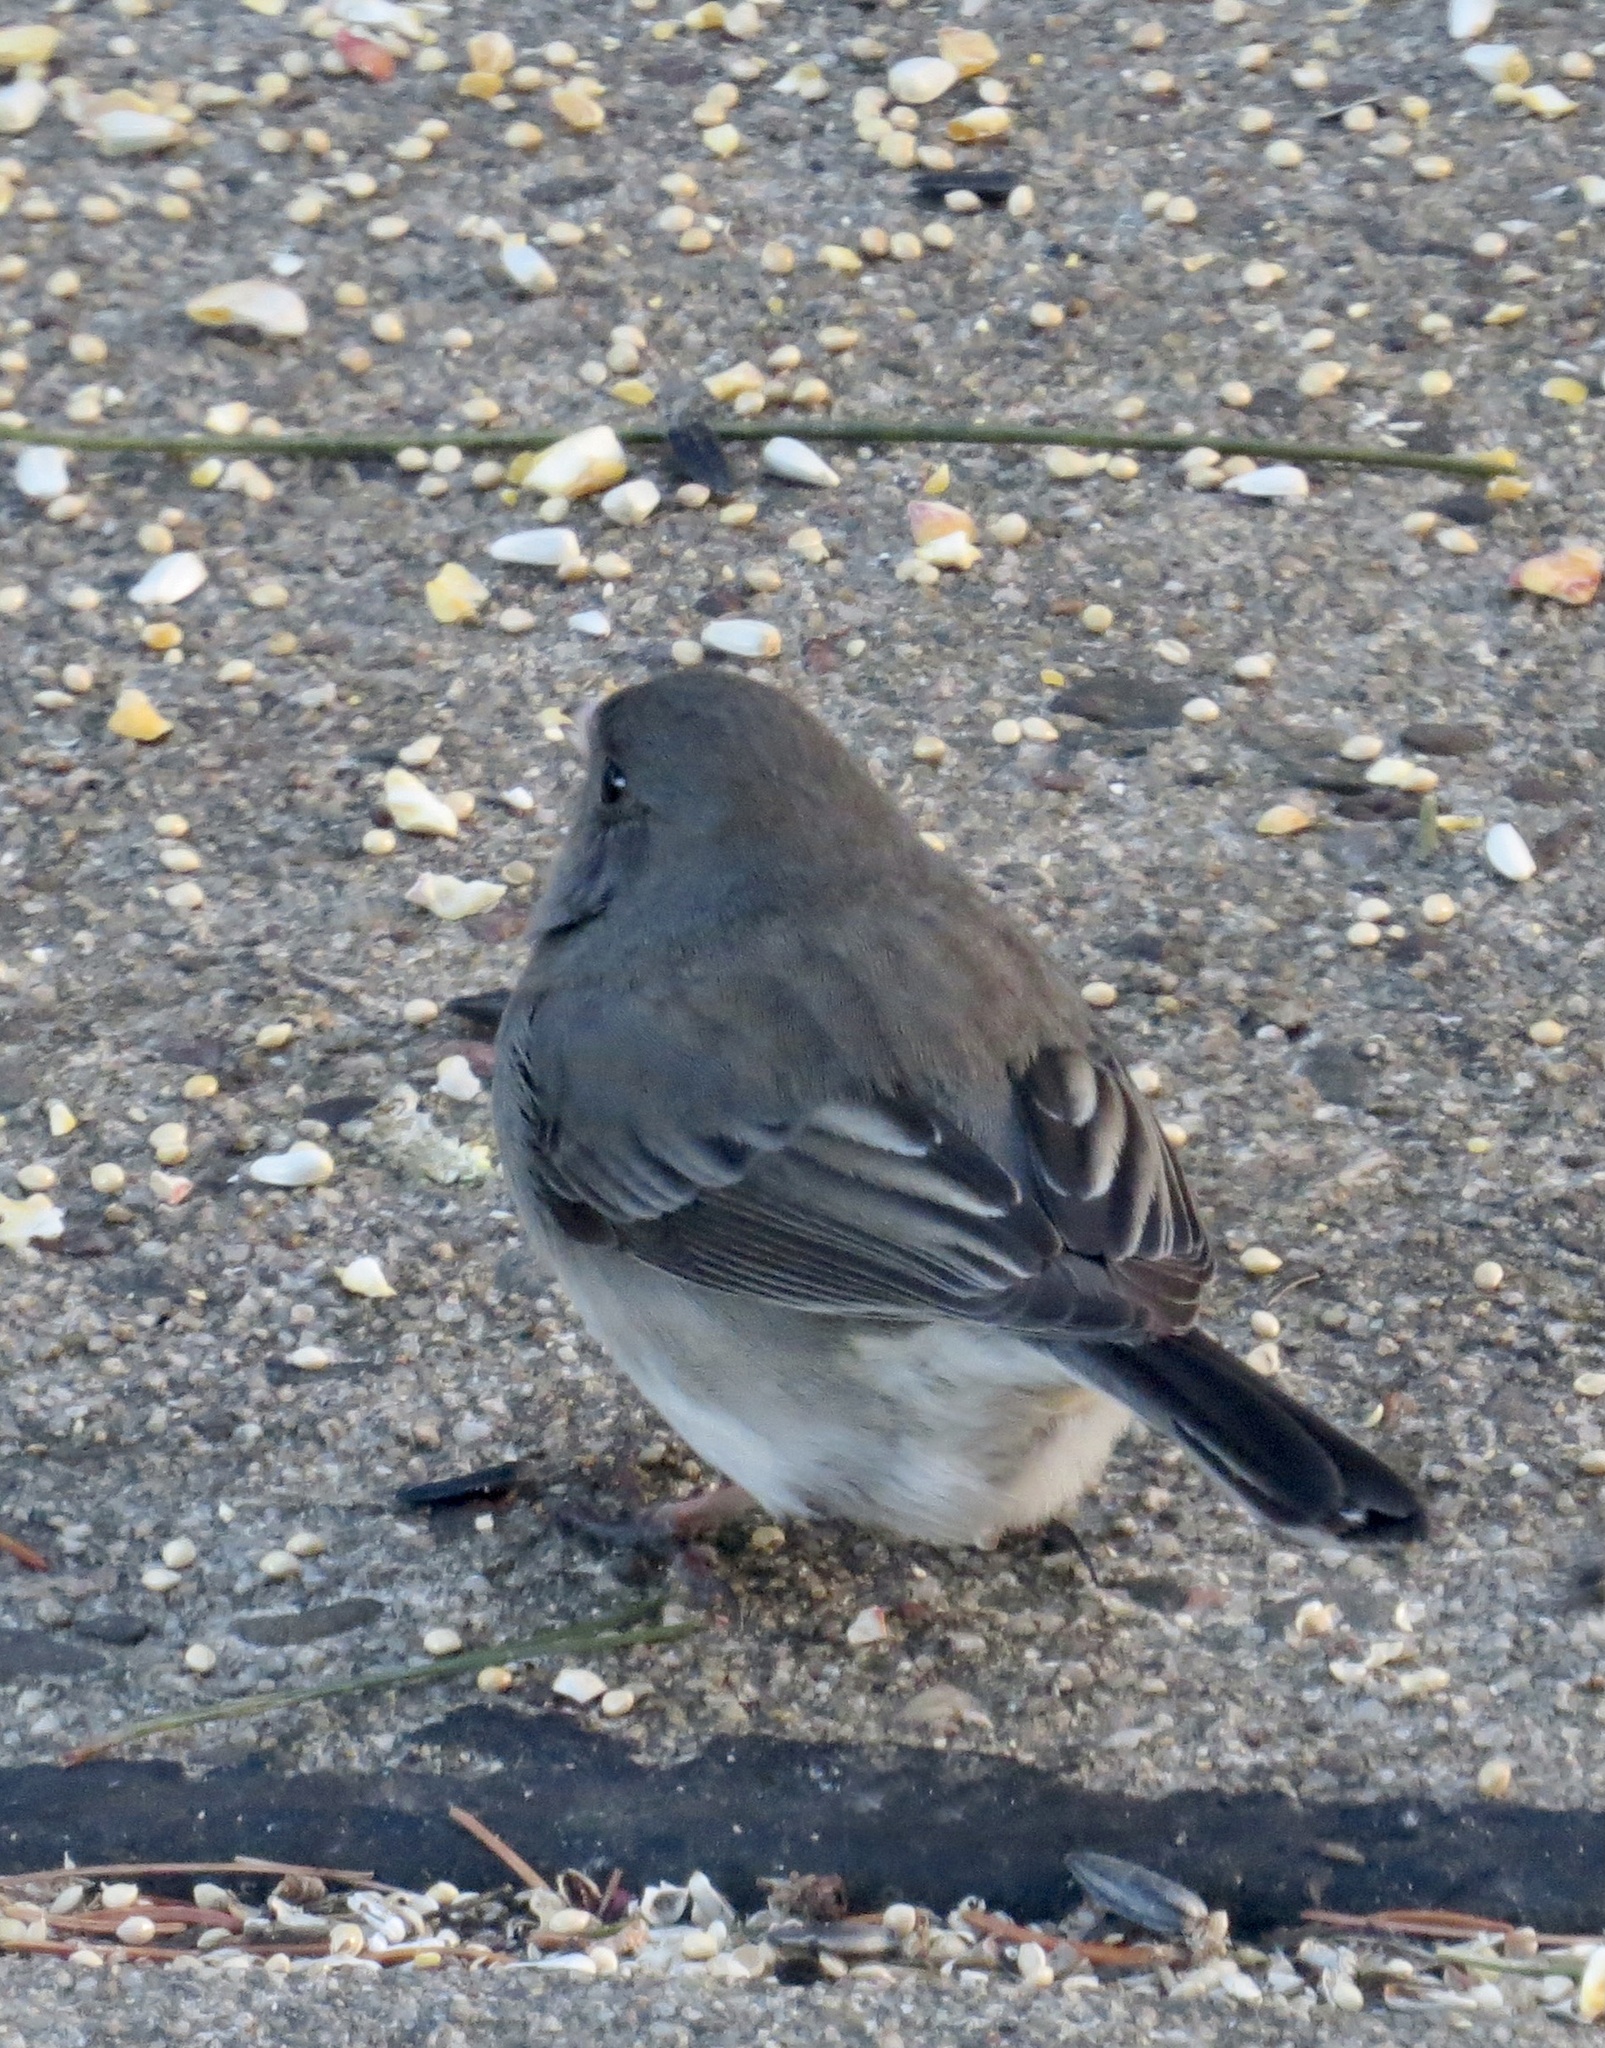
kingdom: Animalia
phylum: Chordata
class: Aves
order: Passeriformes
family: Passerellidae
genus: Junco
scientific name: Junco hyemalis
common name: Dark-eyed junco
